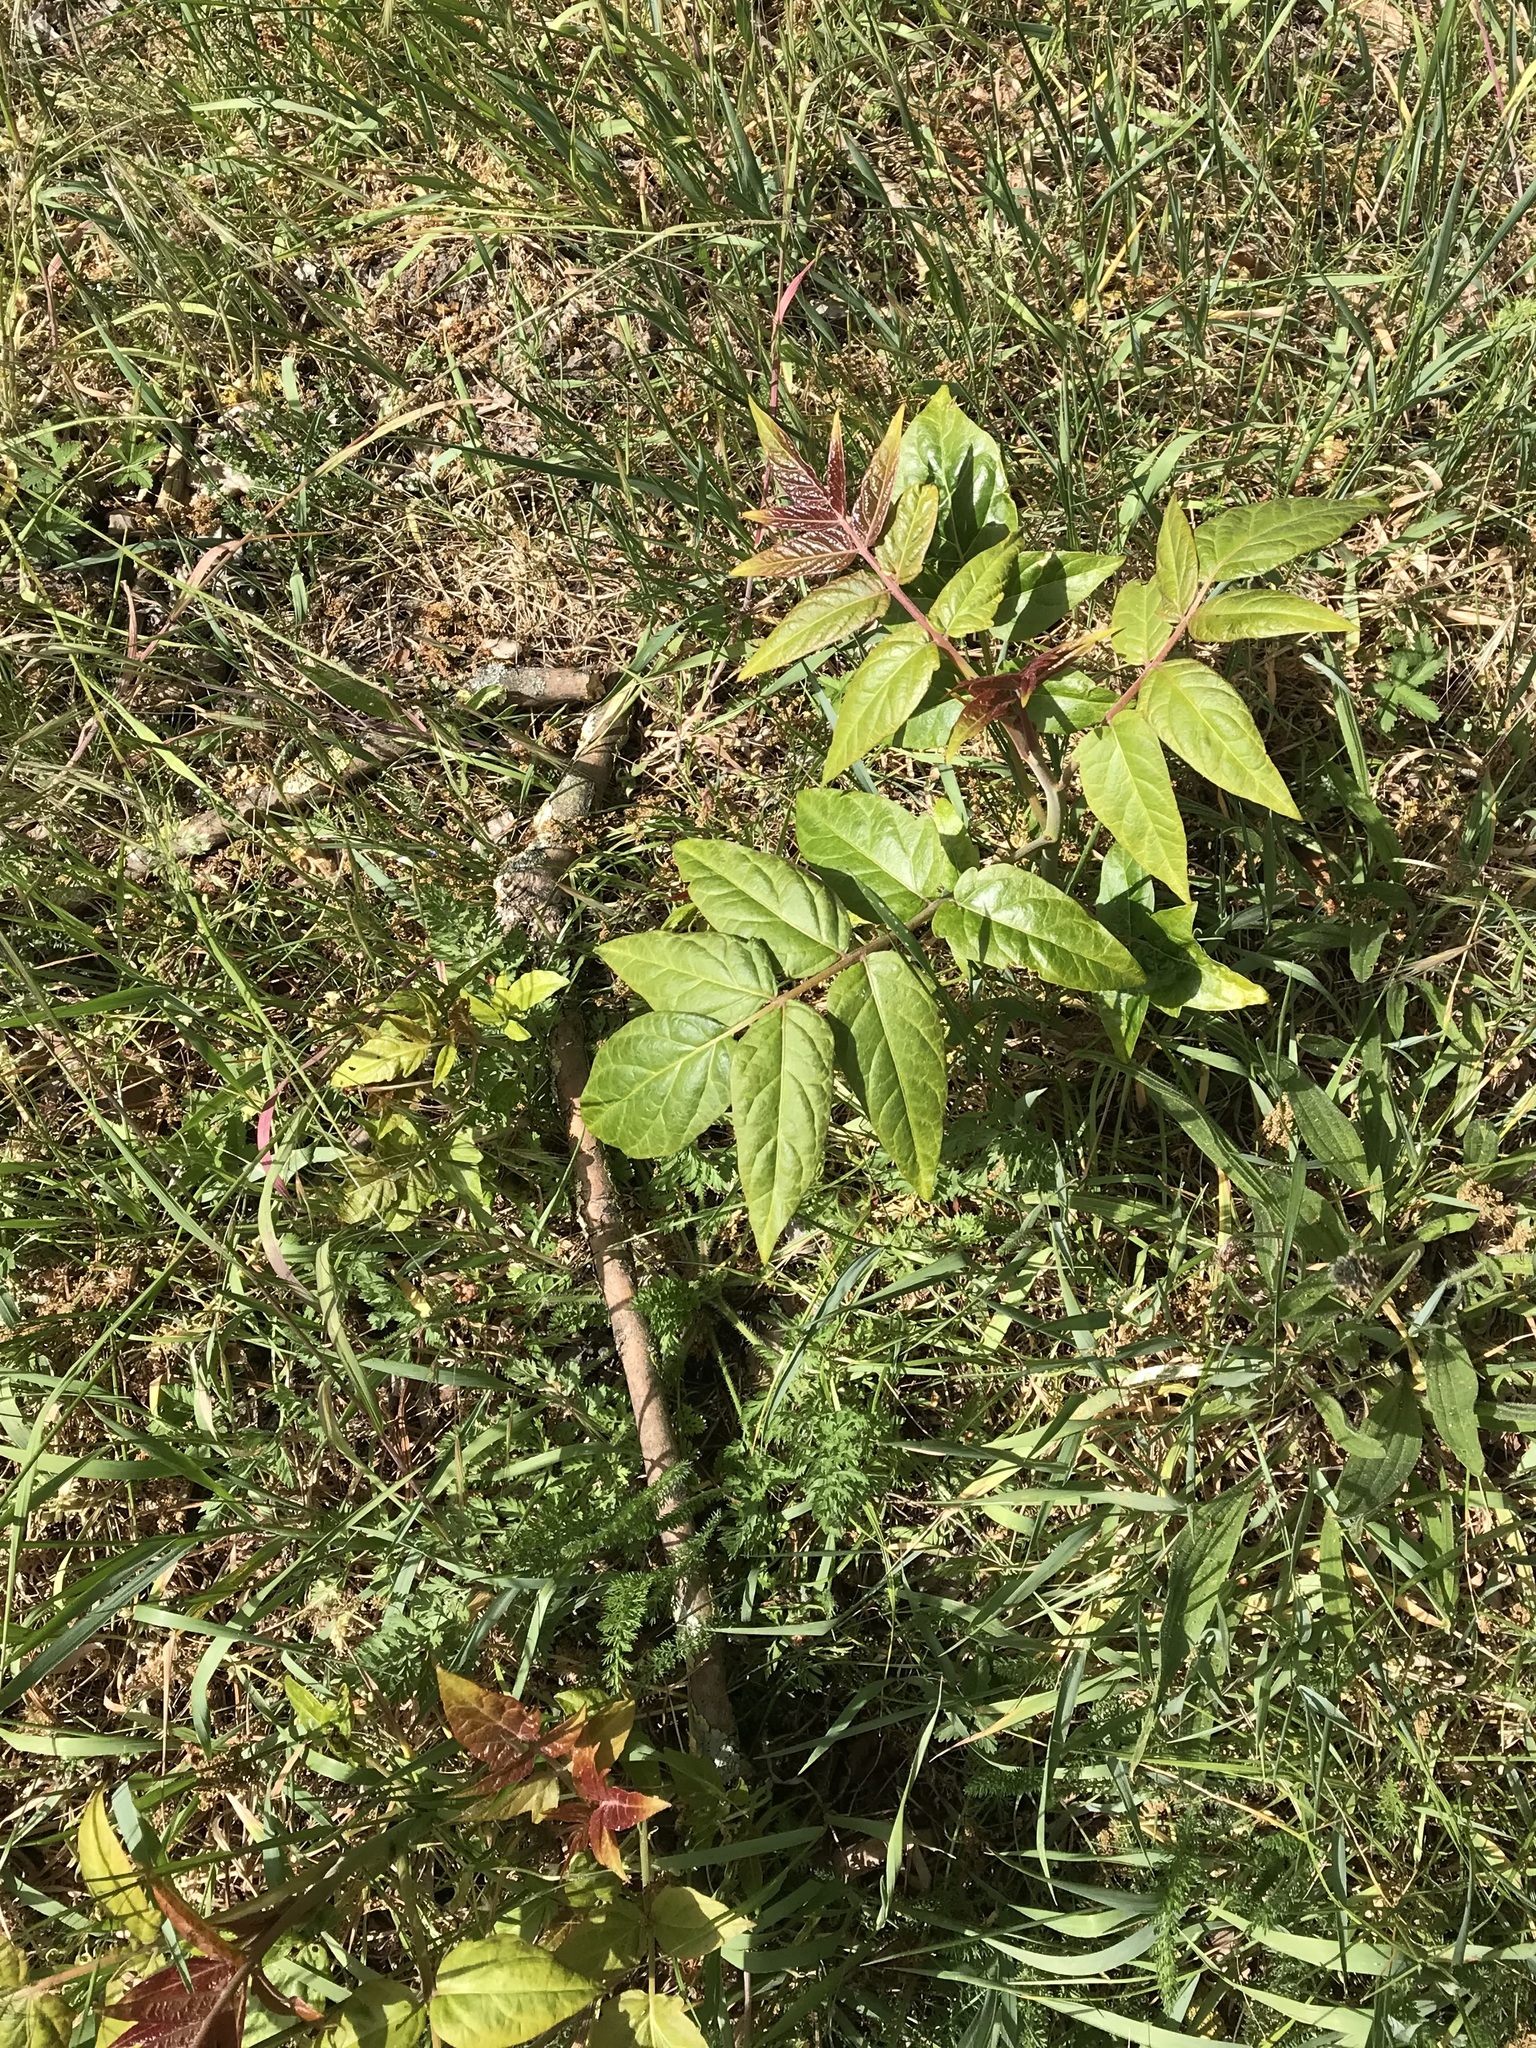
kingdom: Plantae
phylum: Tracheophyta
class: Magnoliopsida
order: Sapindales
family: Simaroubaceae
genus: Ailanthus
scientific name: Ailanthus altissima
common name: Tree-of-heaven
